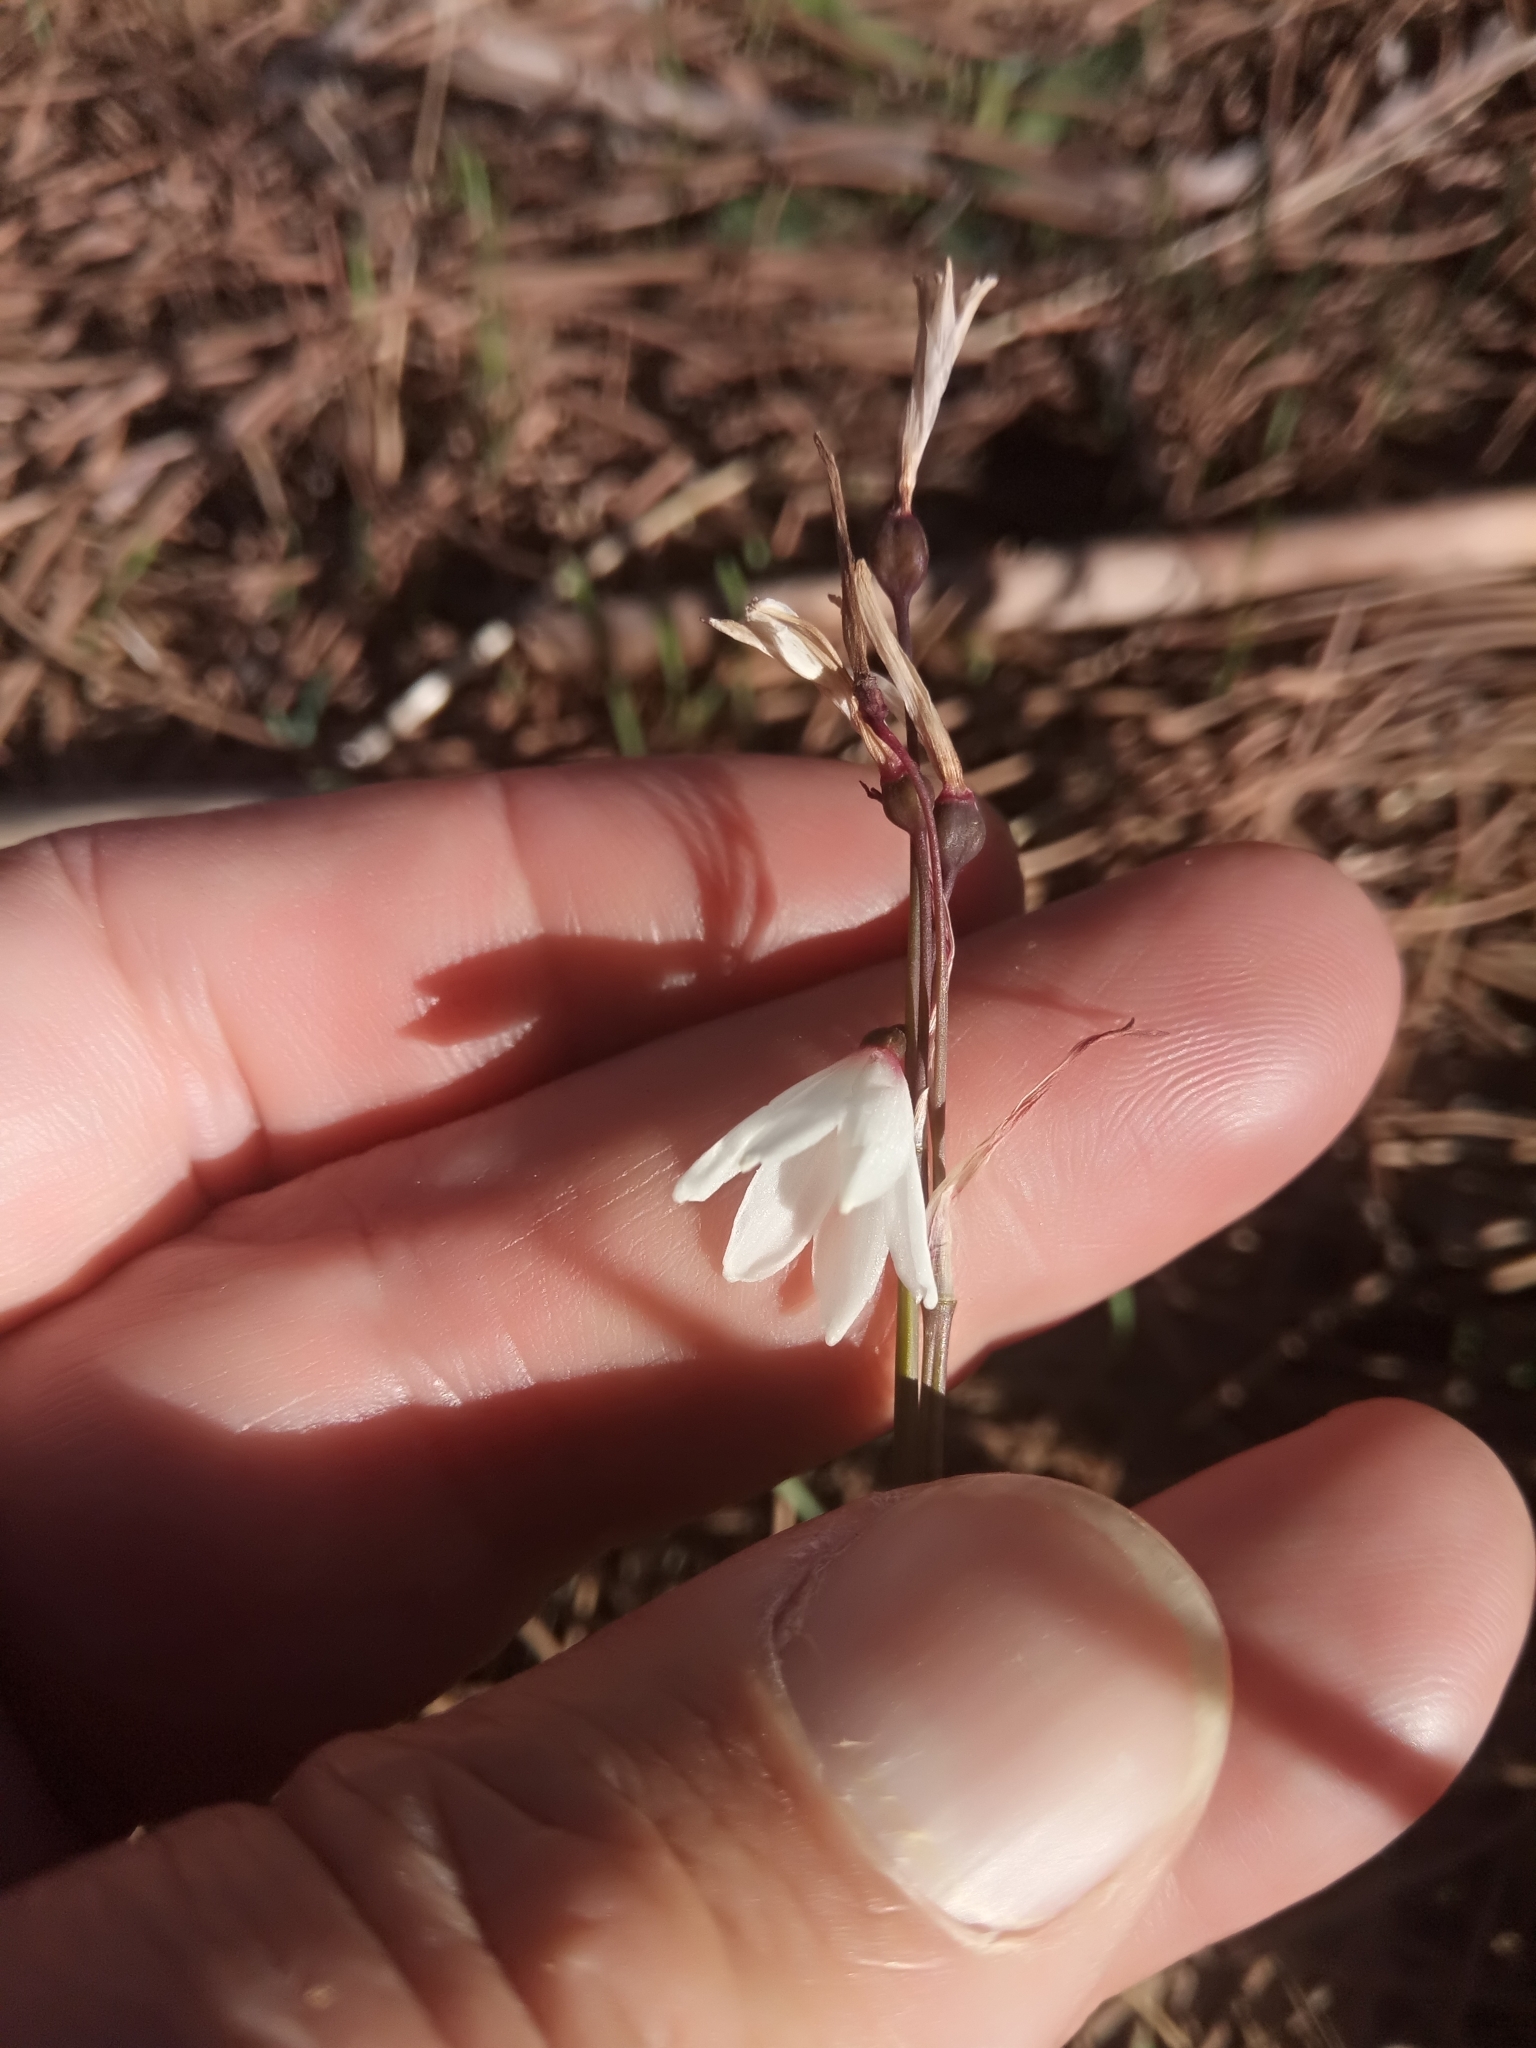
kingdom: Plantae
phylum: Tracheophyta
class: Liliopsida
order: Asparagales
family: Amaryllidaceae
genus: Acis
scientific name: Acis autumnalis
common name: Autumn snowflake
